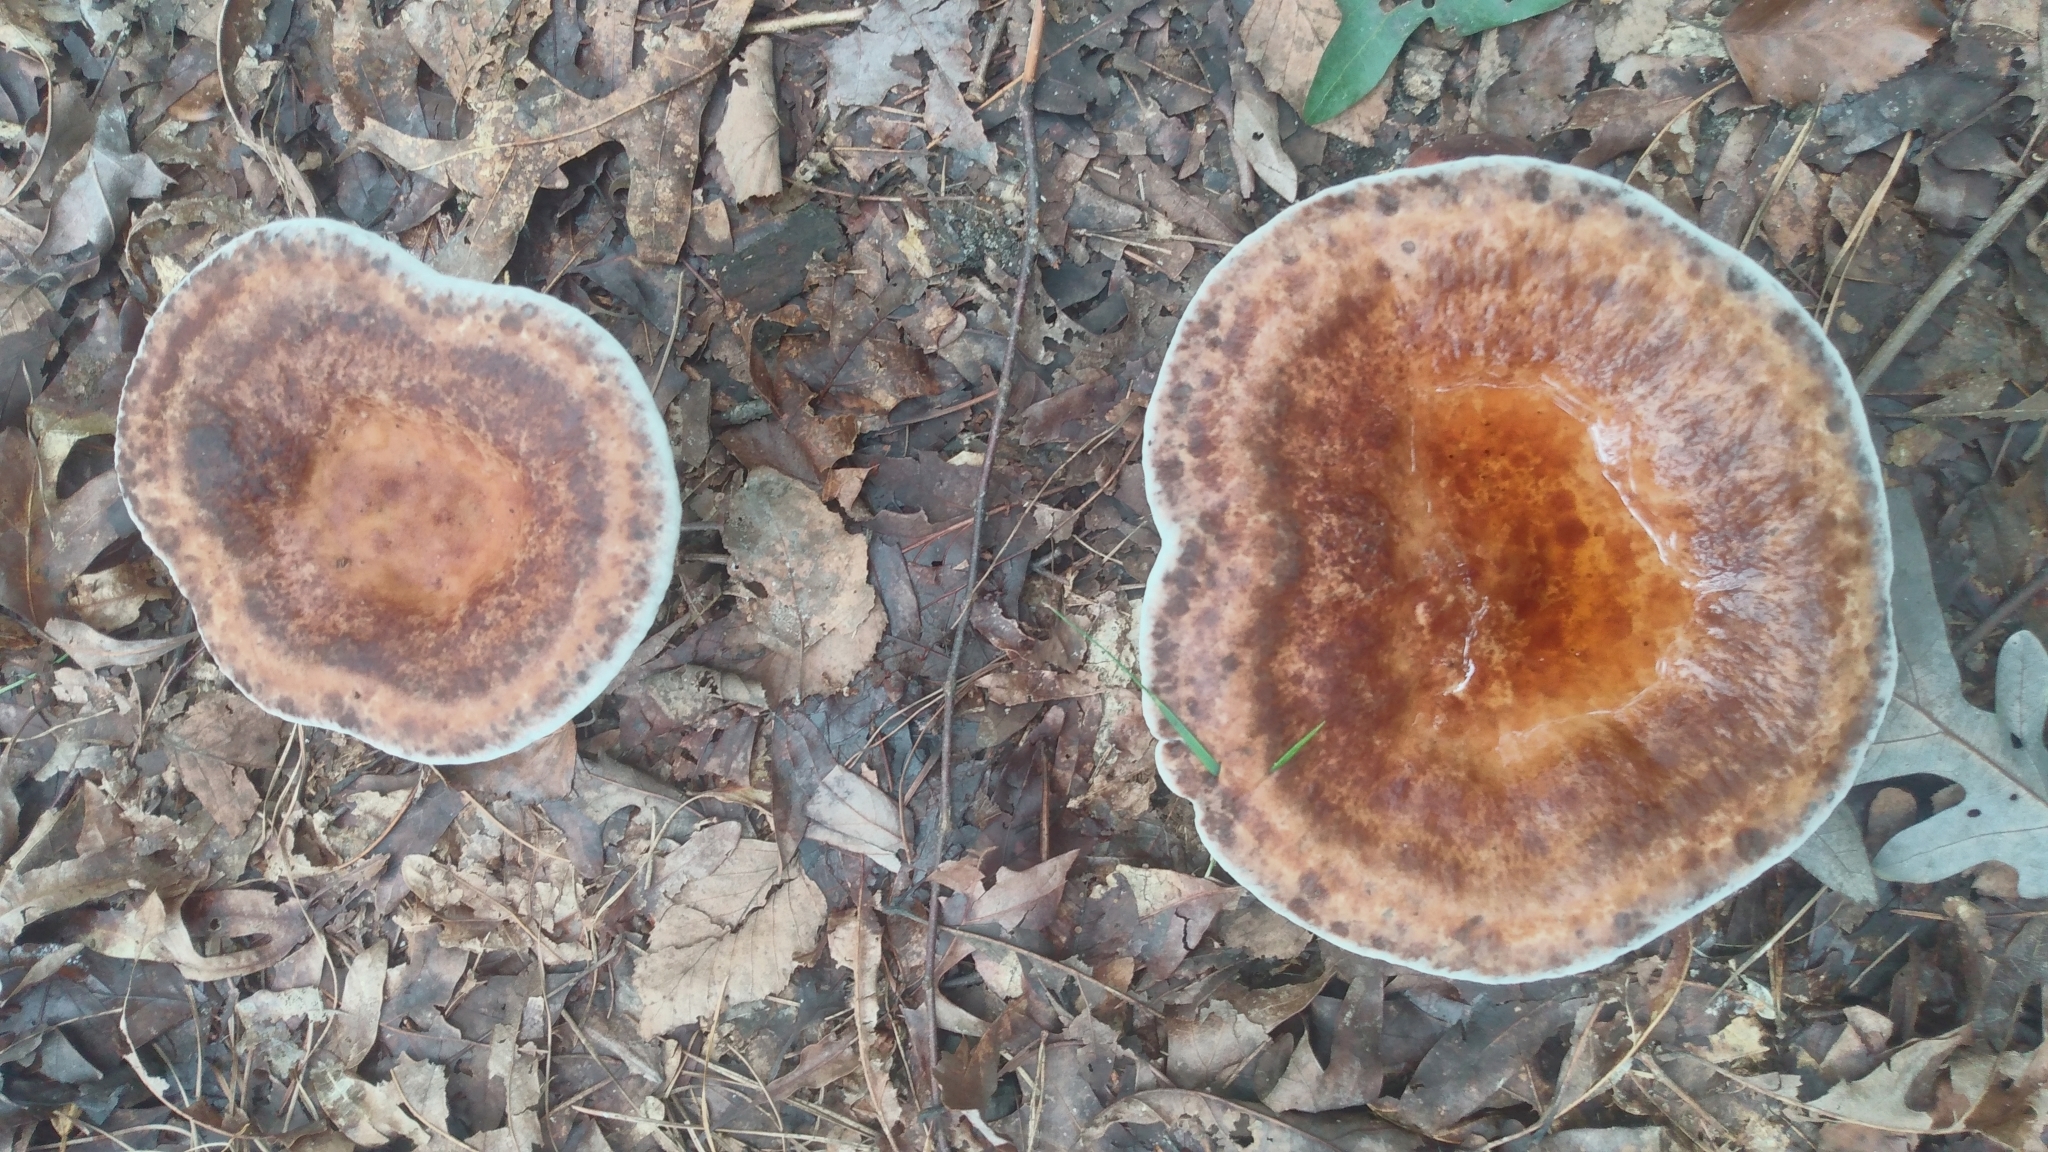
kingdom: Fungi
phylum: Basidiomycota
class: Agaricomycetes
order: Polyporales
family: Laetiporaceae
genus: Berkcurtia
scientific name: Berkcurtia persicina
